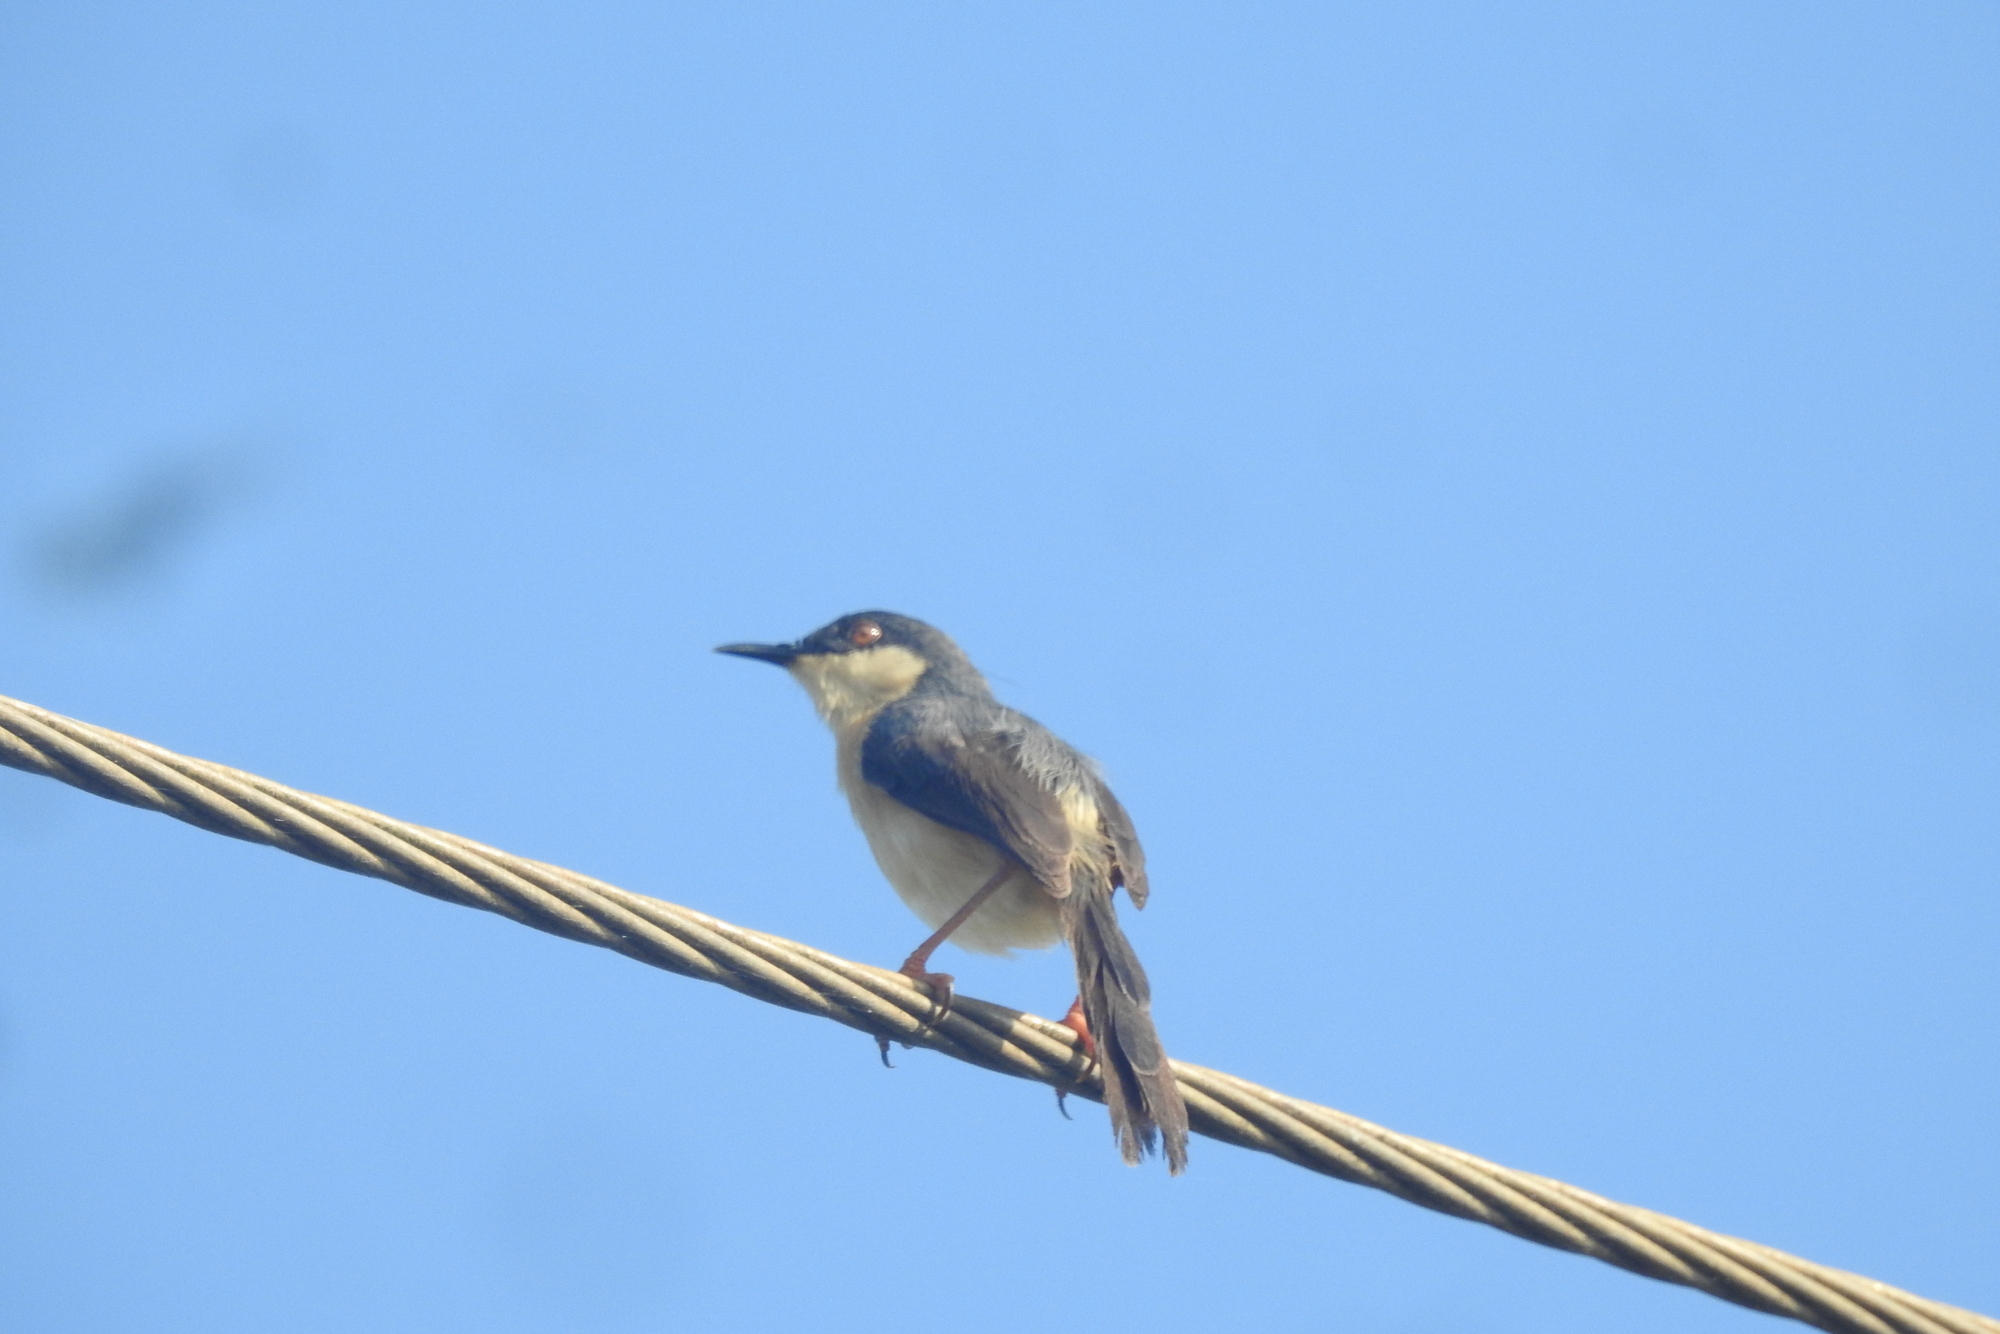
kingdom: Animalia
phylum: Chordata
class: Aves
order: Passeriformes
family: Cisticolidae
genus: Prinia
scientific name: Prinia socialis
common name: Ashy prinia
